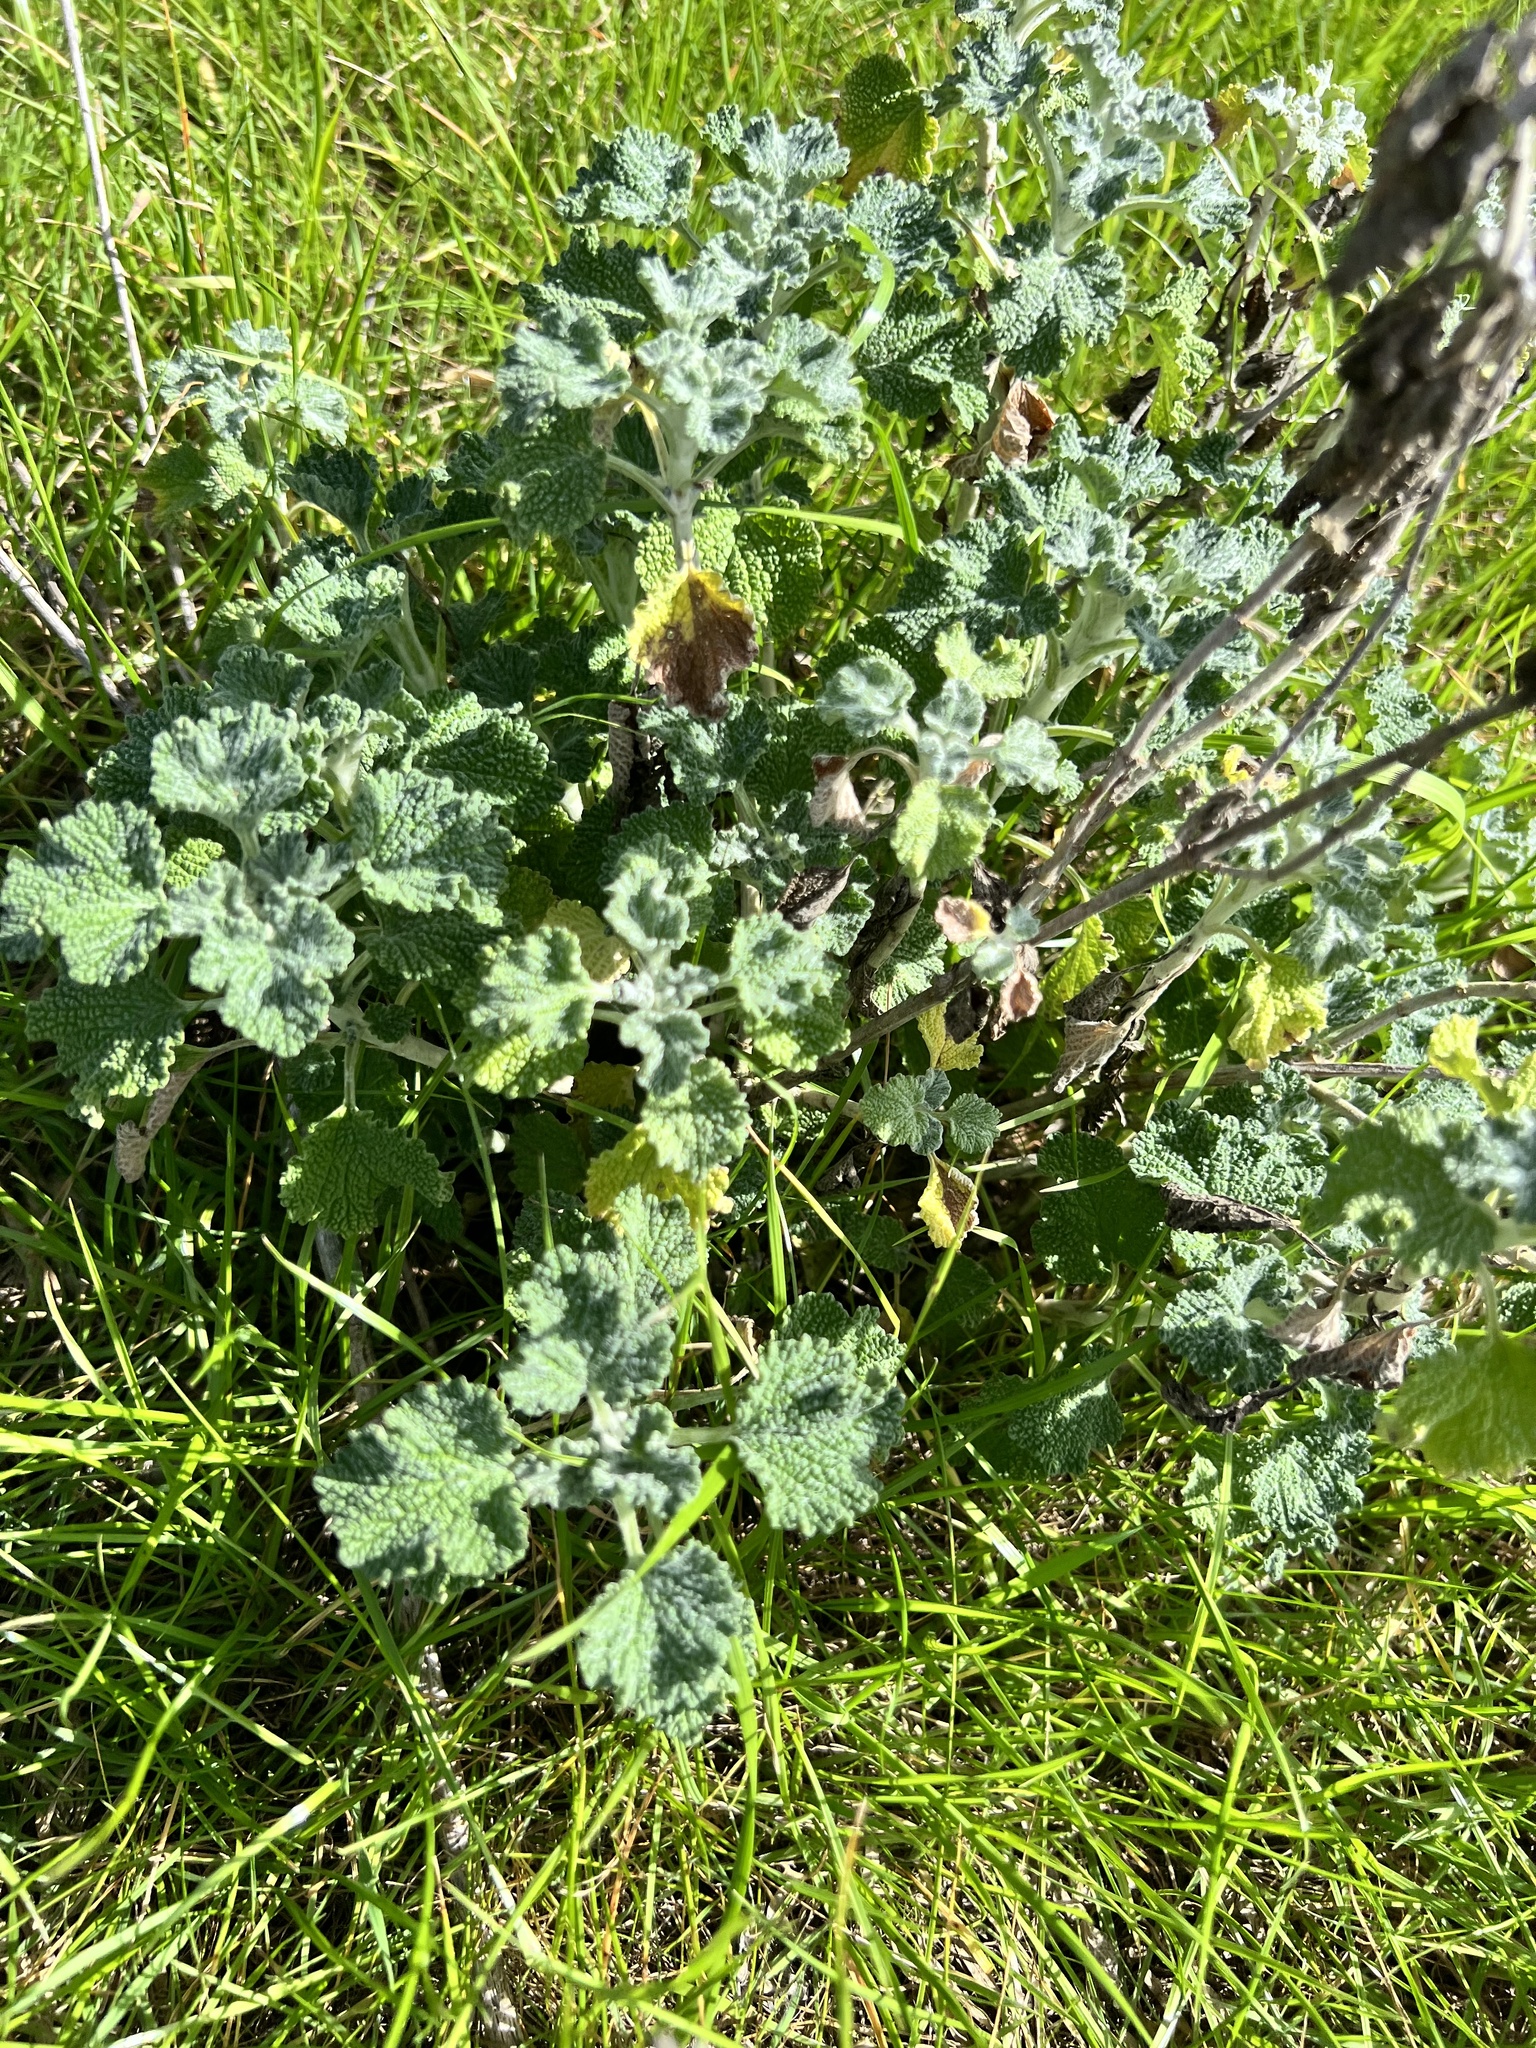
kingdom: Plantae
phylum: Tracheophyta
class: Magnoliopsida
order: Lamiales
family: Lamiaceae
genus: Marrubium
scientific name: Marrubium vulgare
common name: Horehound
